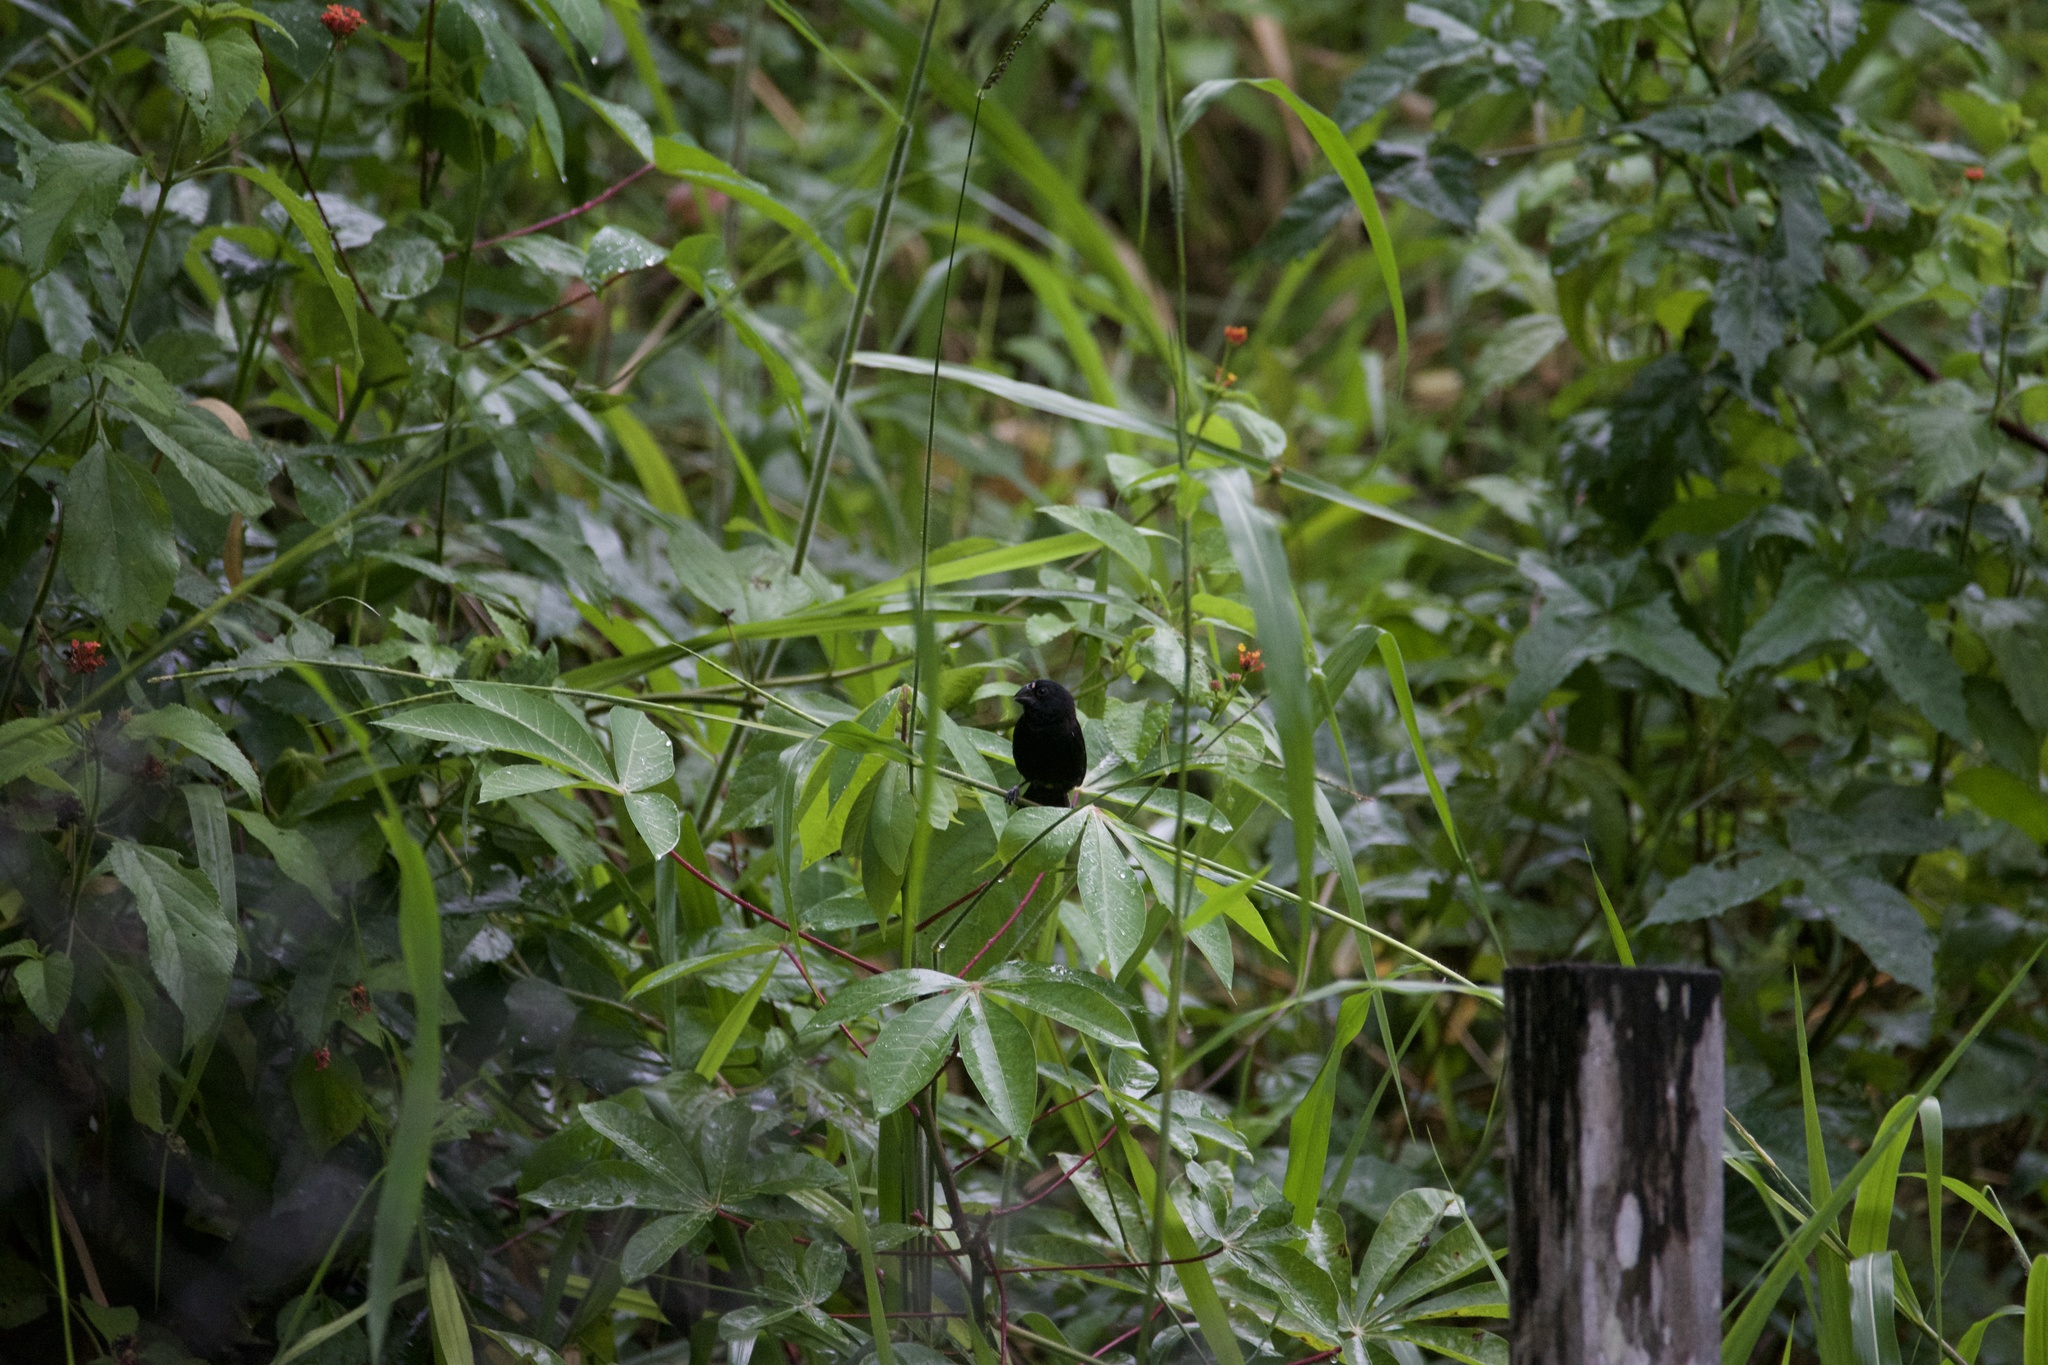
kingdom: Animalia
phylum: Chordata
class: Aves
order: Passeriformes
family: Thraupidae
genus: Sporophila
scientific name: Sporophila funerea
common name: Thick-billed seed-finch
